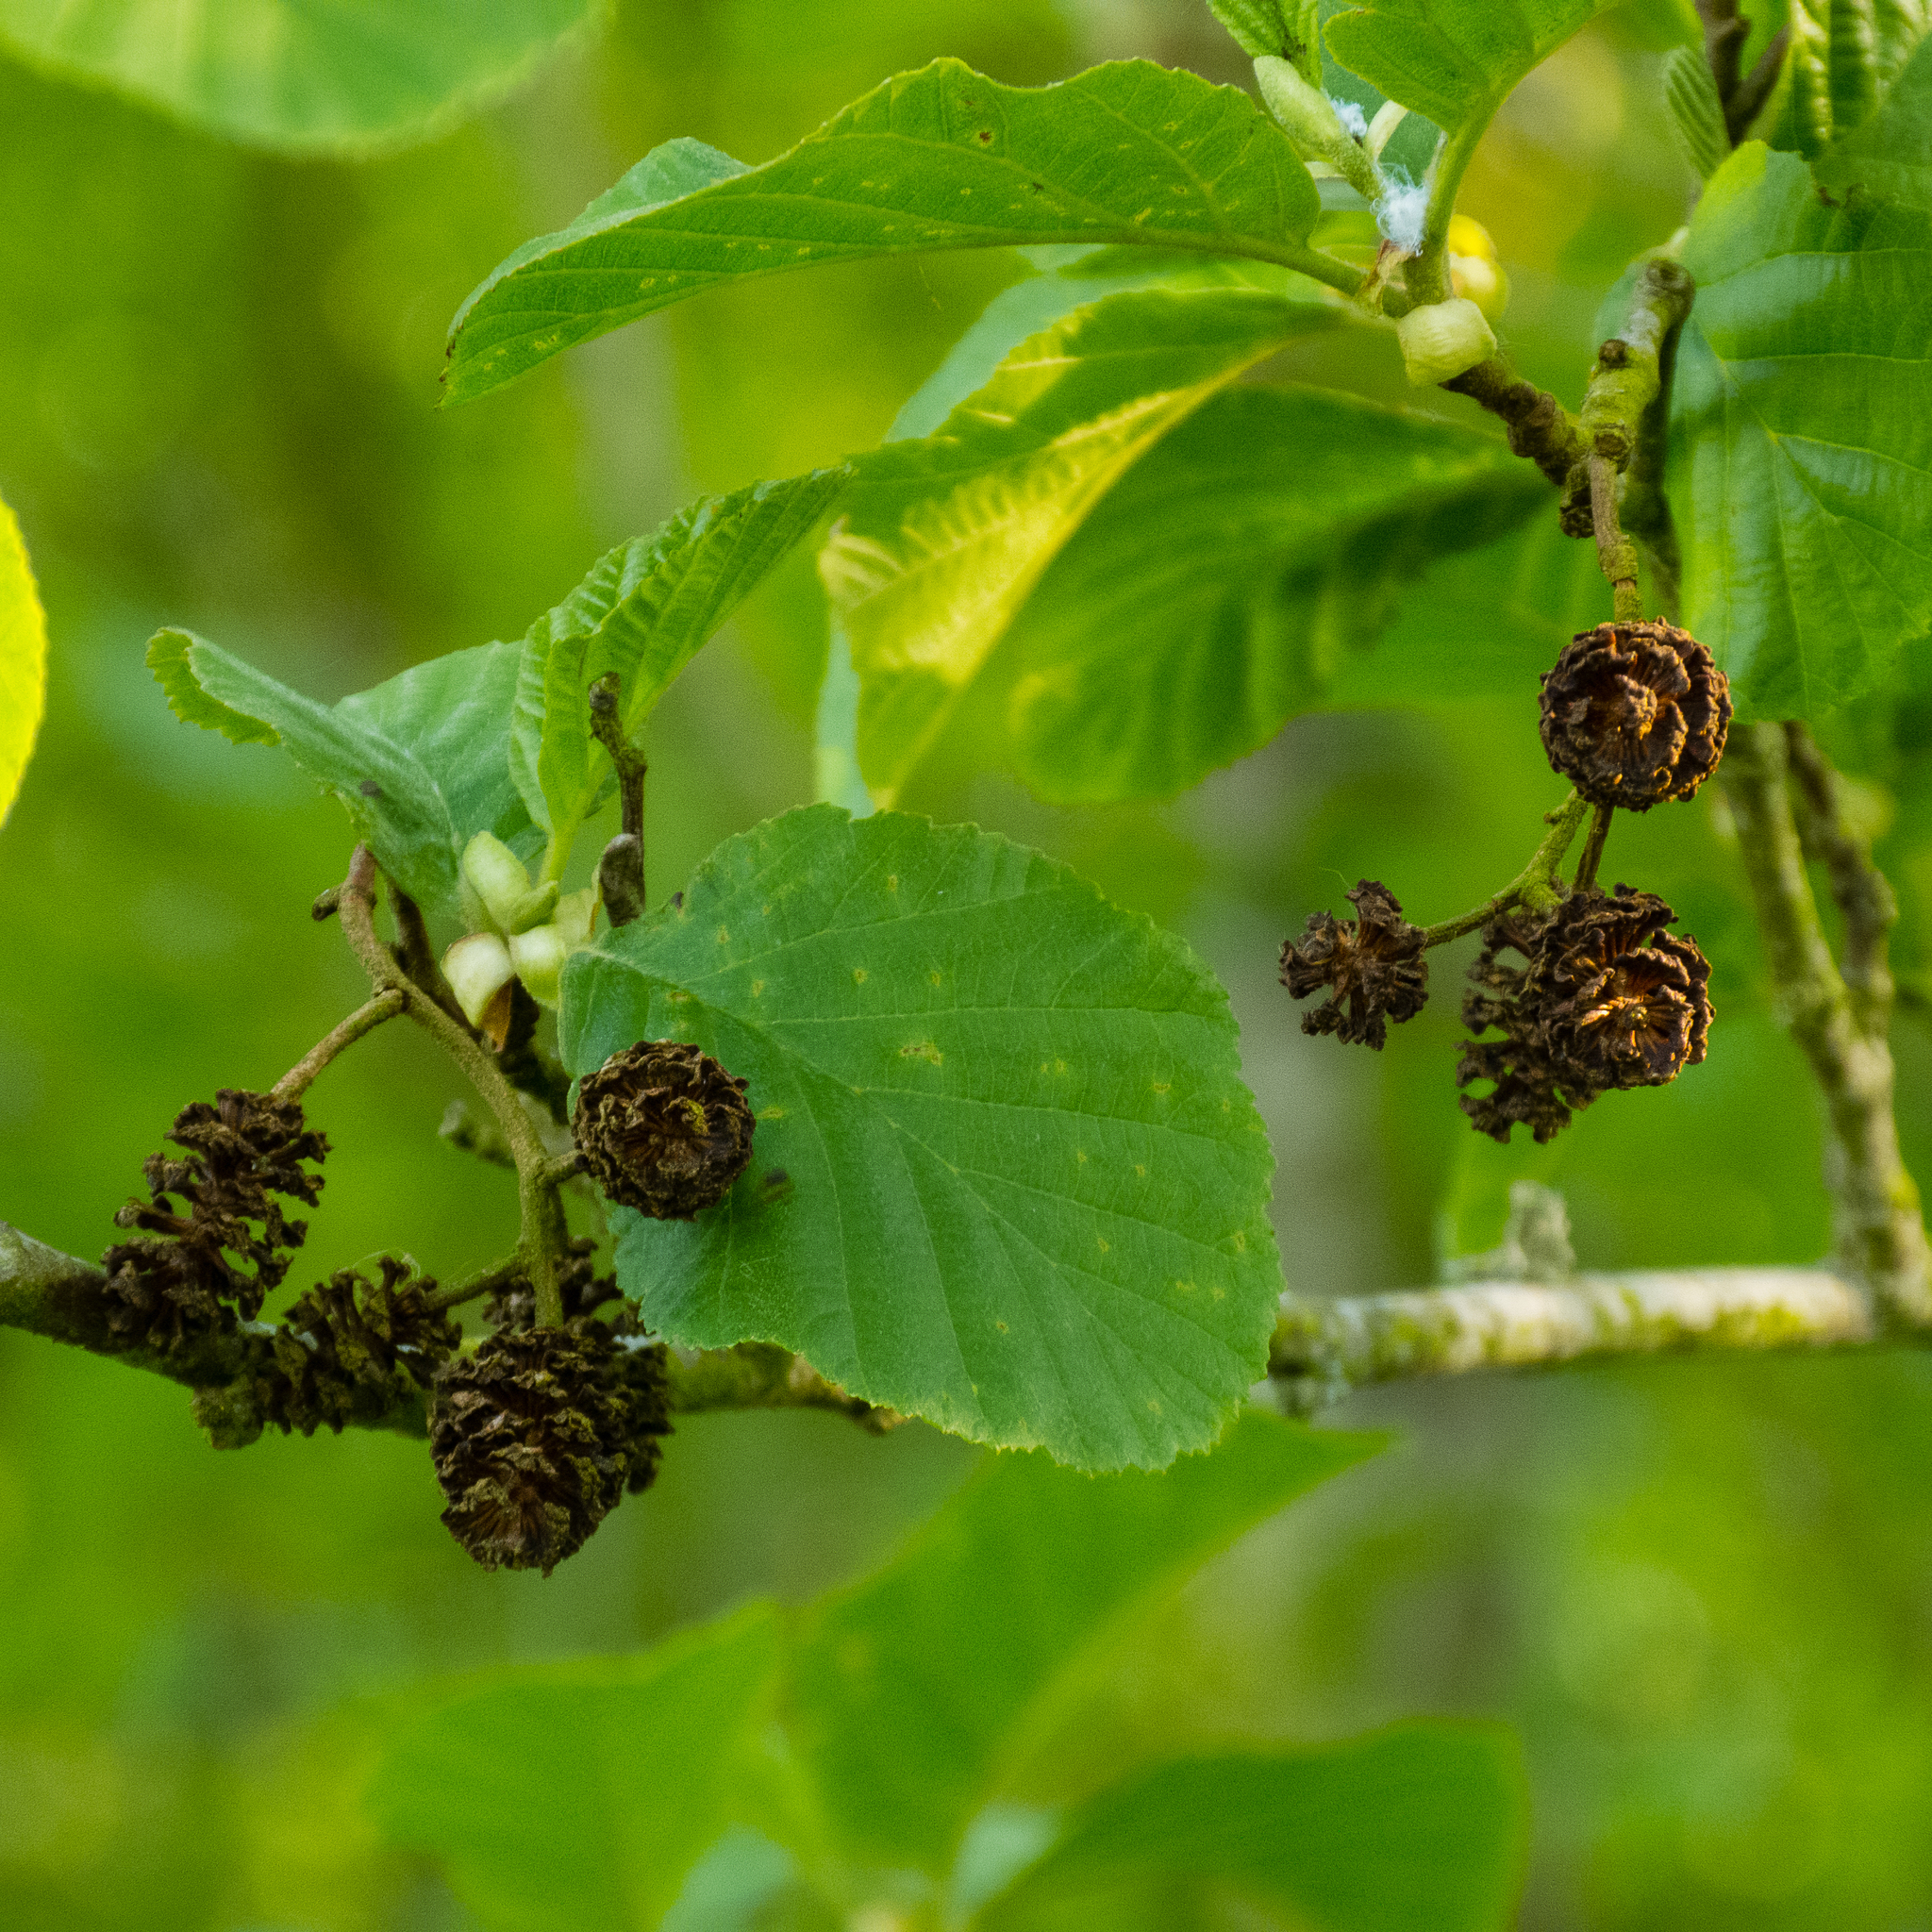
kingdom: Plantae
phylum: Tracheophyta
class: Magnoliopsida
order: Fagales
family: Betulaceae
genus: Alnus
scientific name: Alnus glutinosa
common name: Black alder
